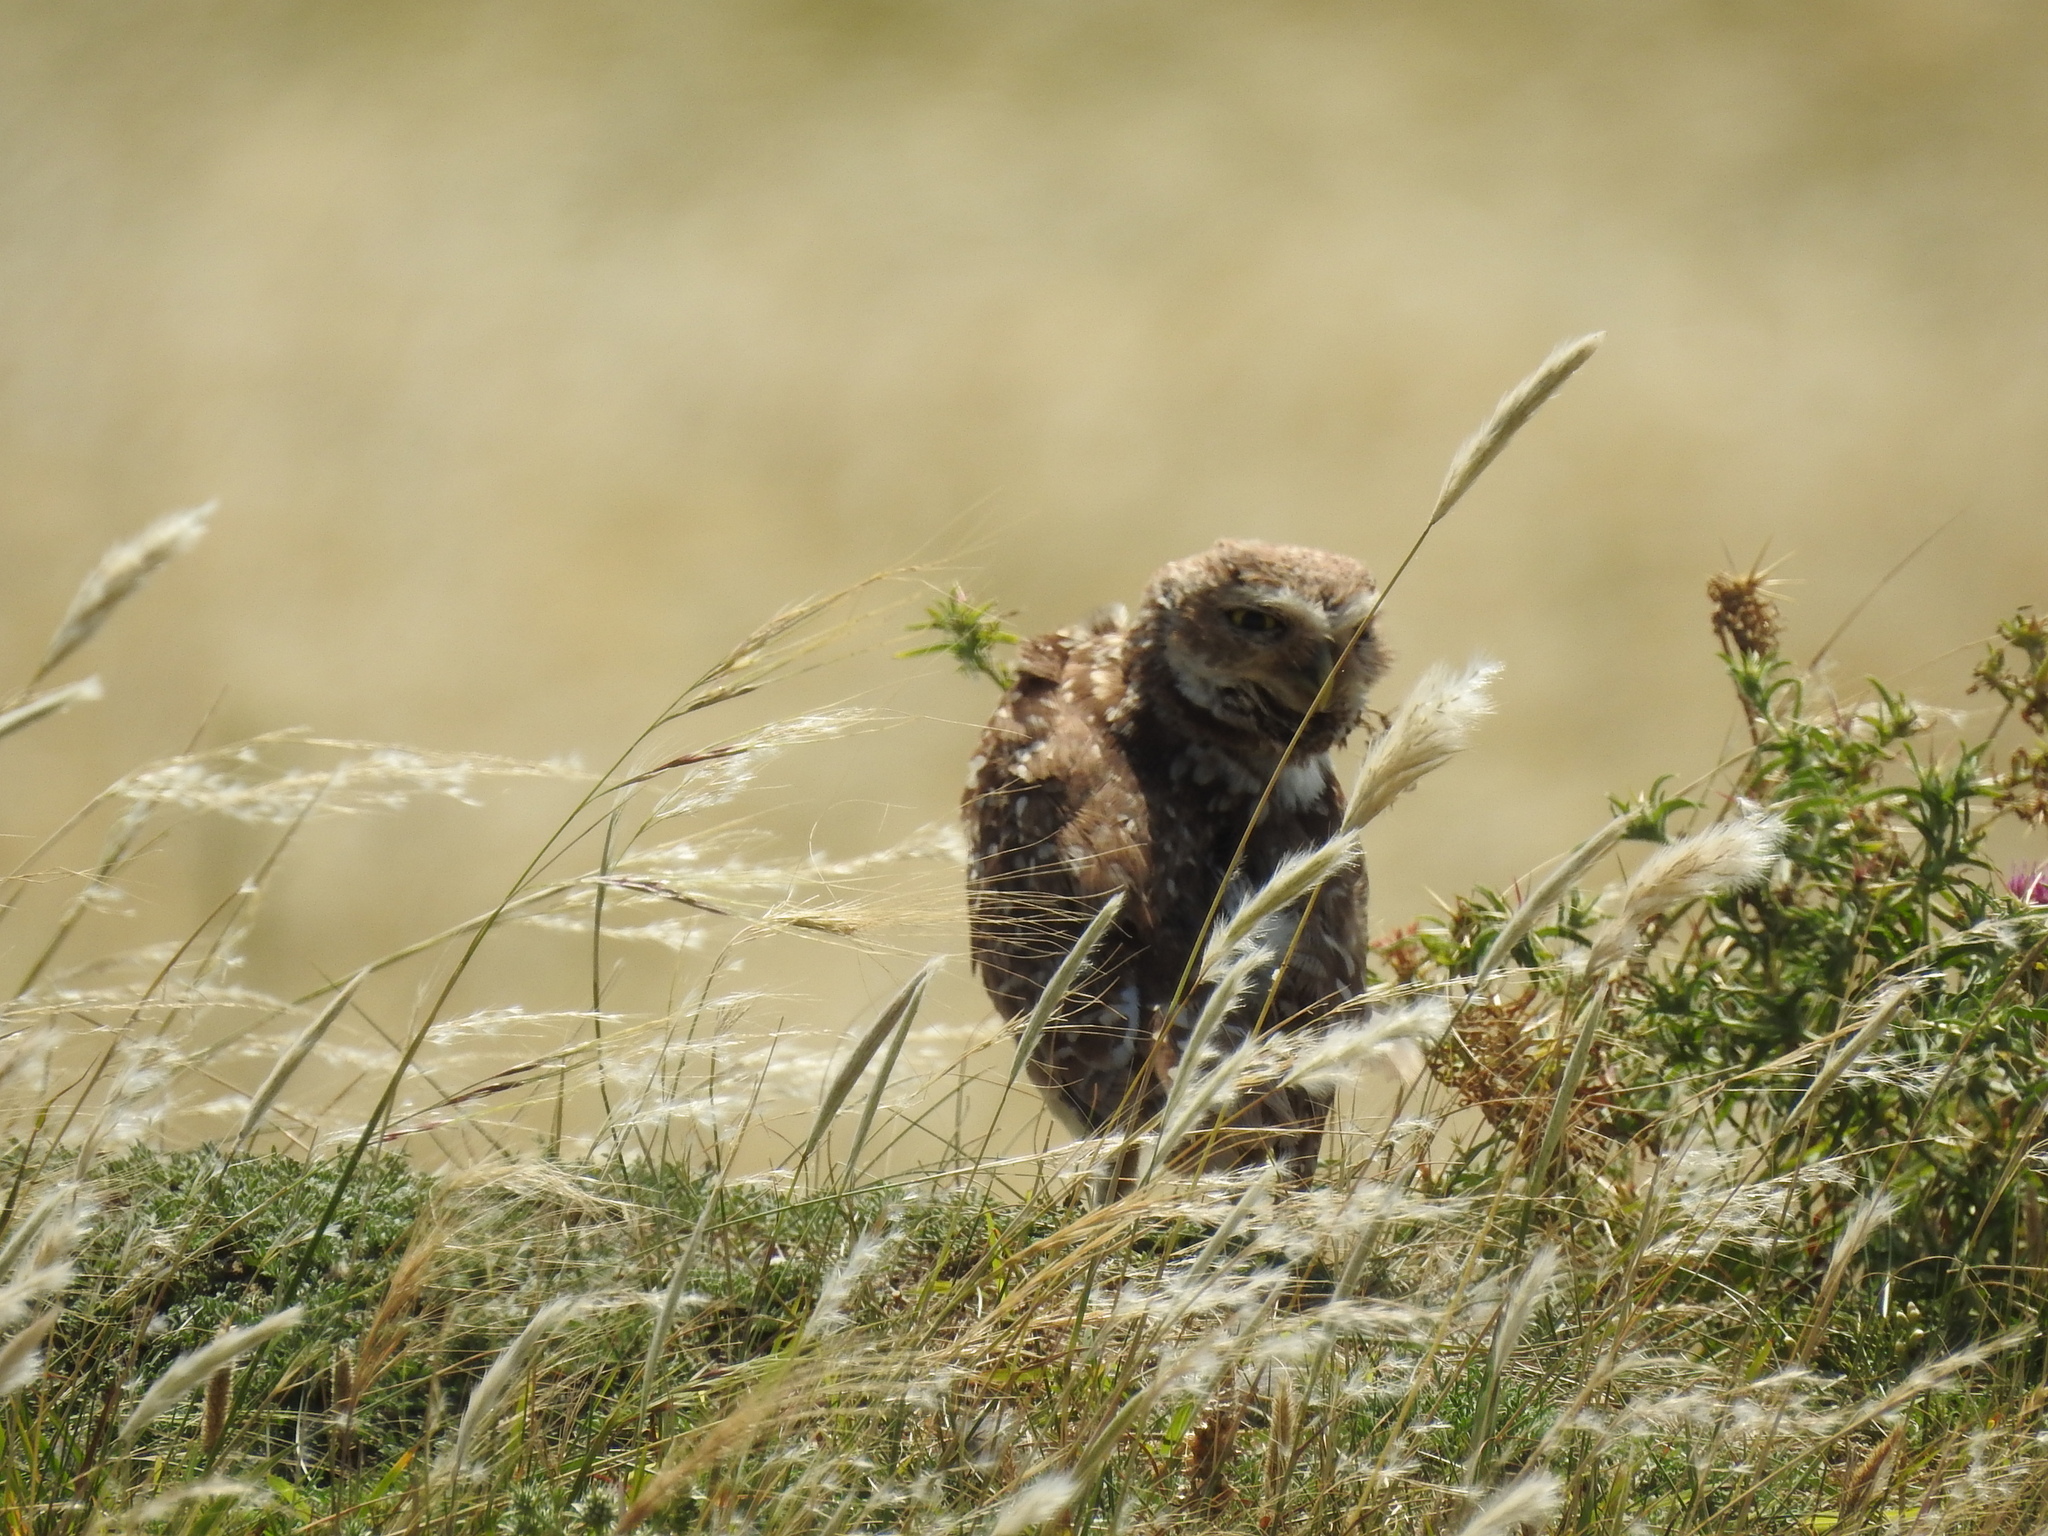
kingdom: Animalia
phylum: Chordata
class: Aves
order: Strigiformes
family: Strigidae
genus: Athene
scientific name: Athene cunicularia
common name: Burrowing owl
